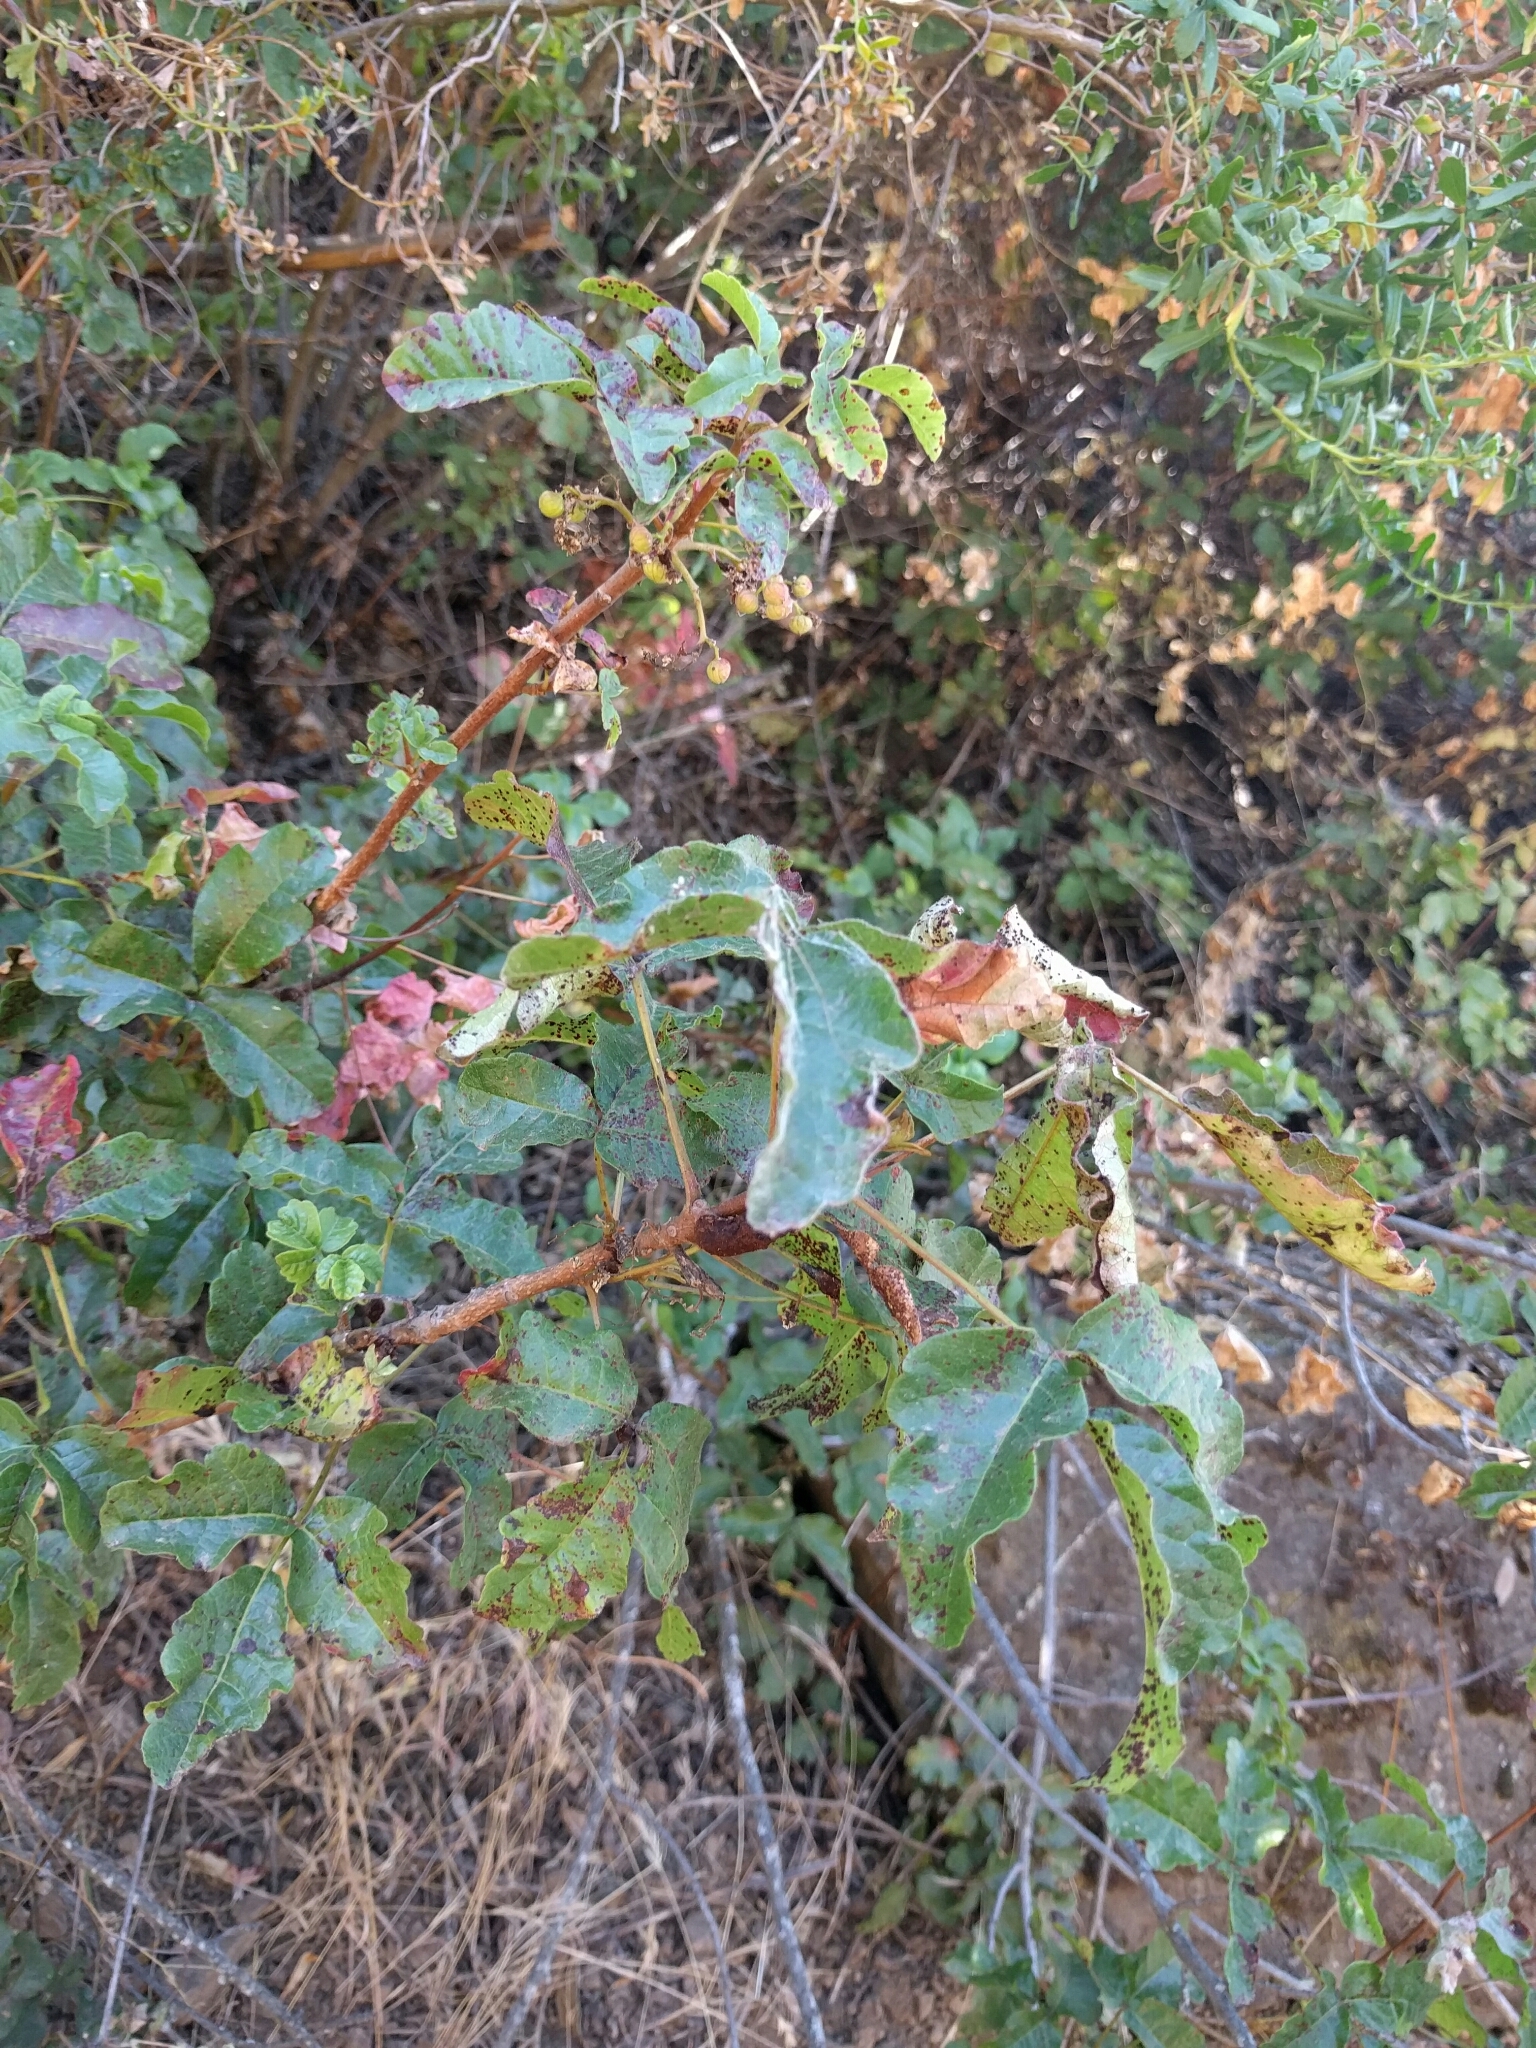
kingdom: Plantae
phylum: Tracheophyta
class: Magnoliopsida
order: Sapindales
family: Anacardiaceae
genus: Toxicodendron
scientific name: Toxicodendron diversilobum
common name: Pacific poison-oak
